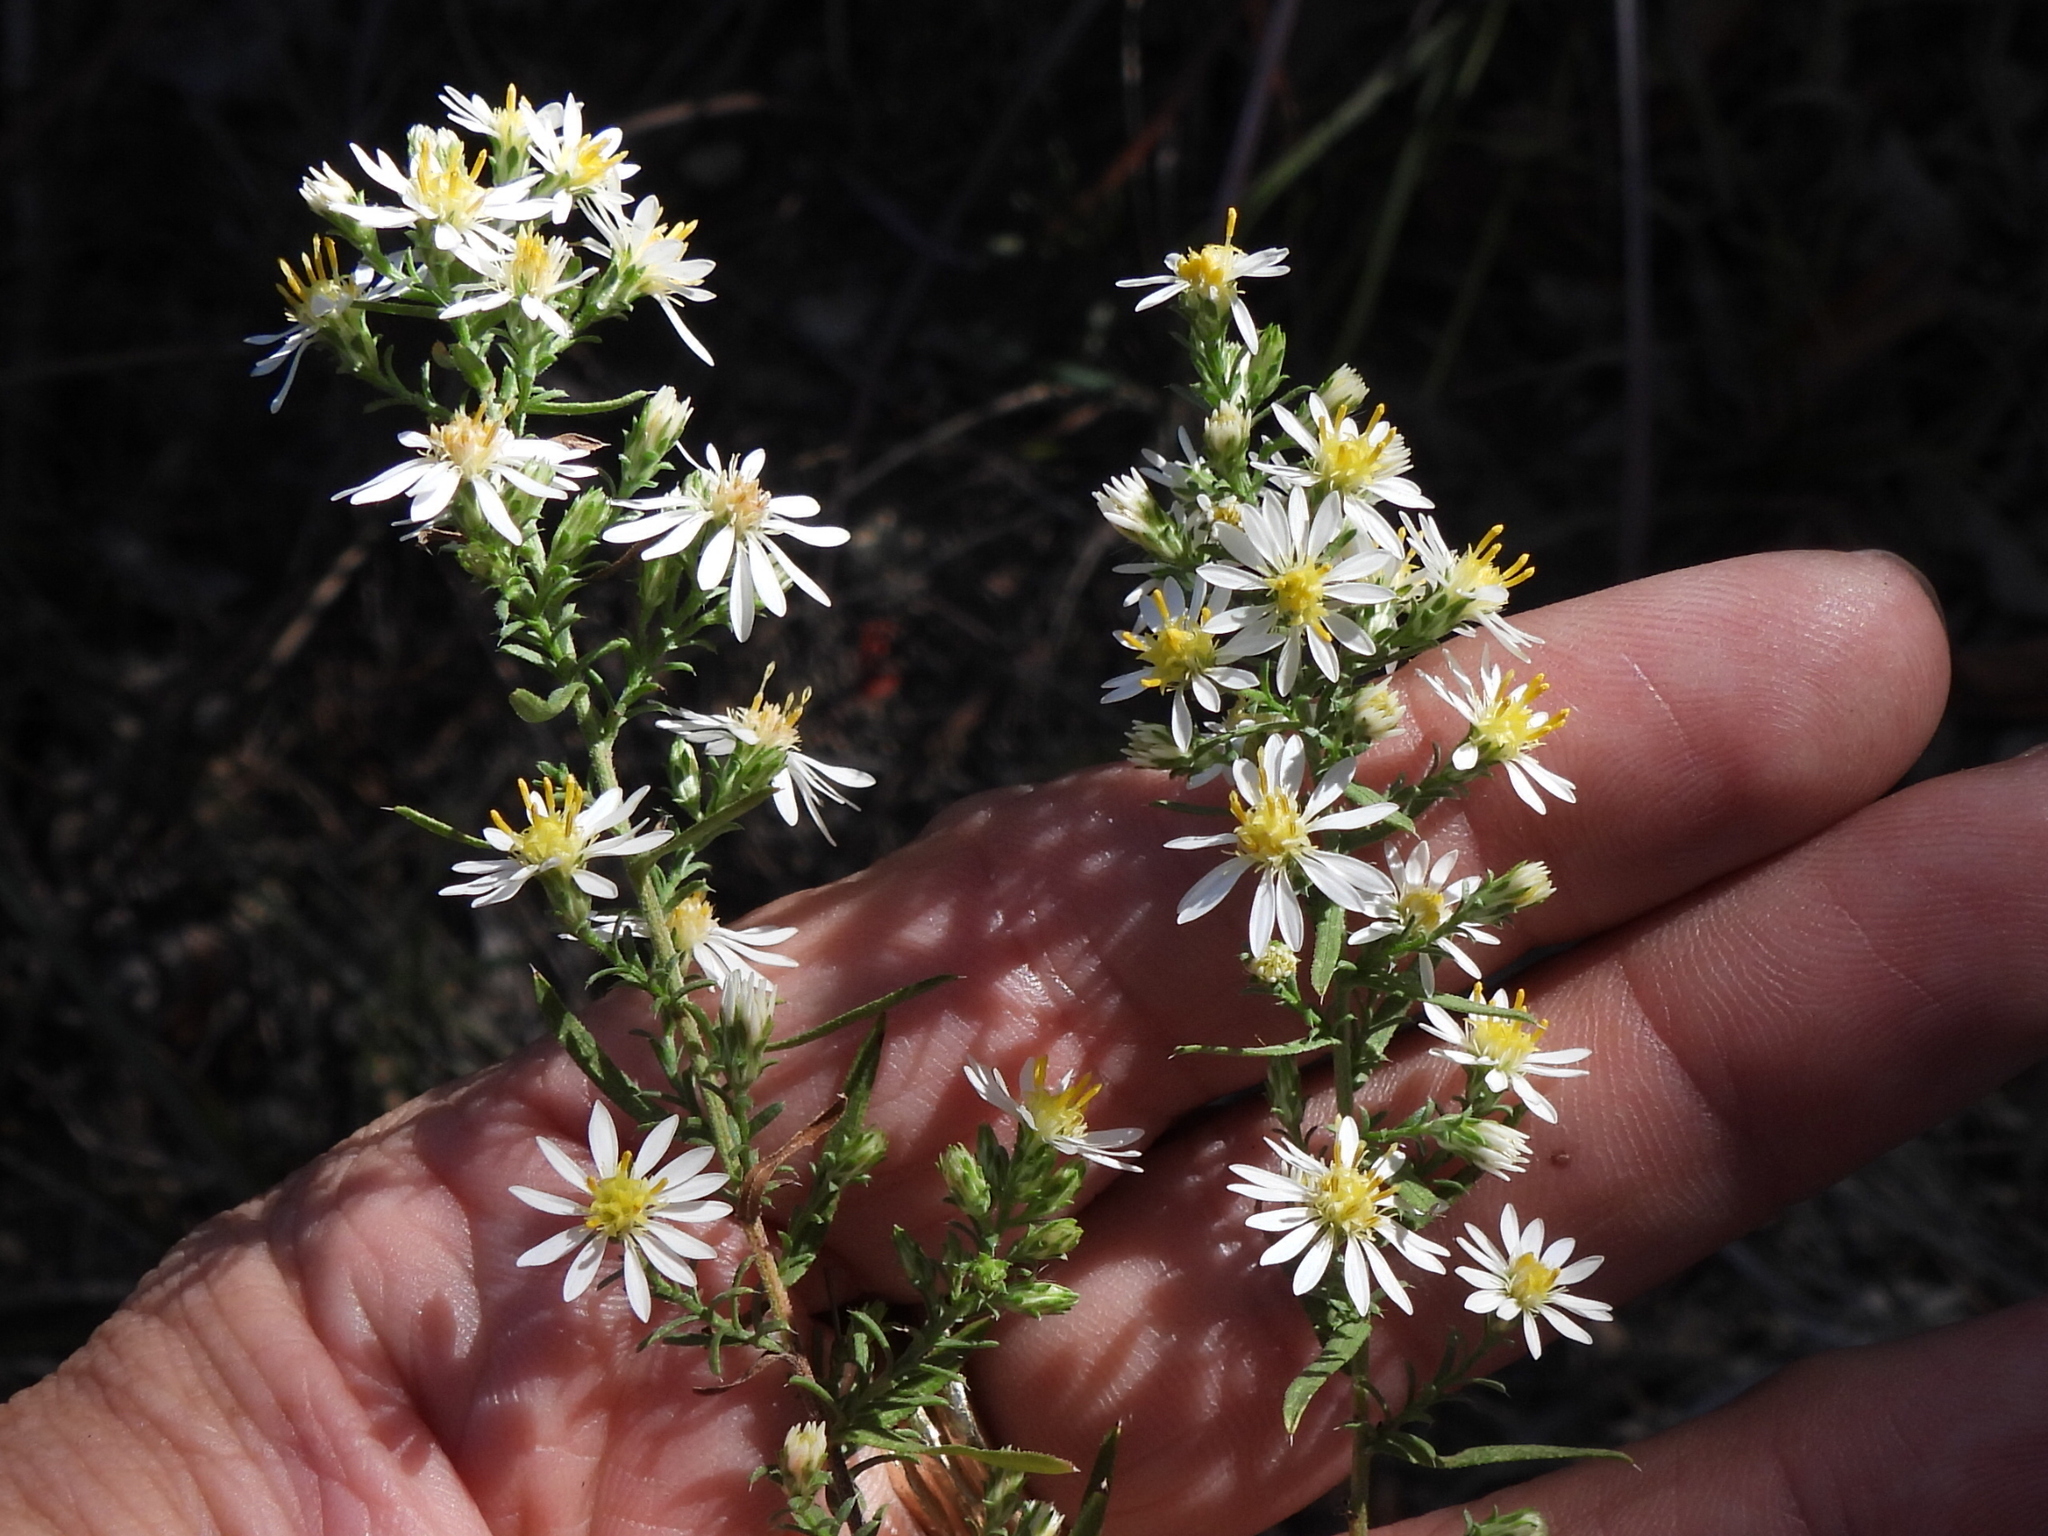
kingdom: Plantae
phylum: Tracheophyta
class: Magnoliopsida
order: Asterales
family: Asteraceae
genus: Symphyotrichum
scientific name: Symphyotrichum ericoides
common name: Heath aster
